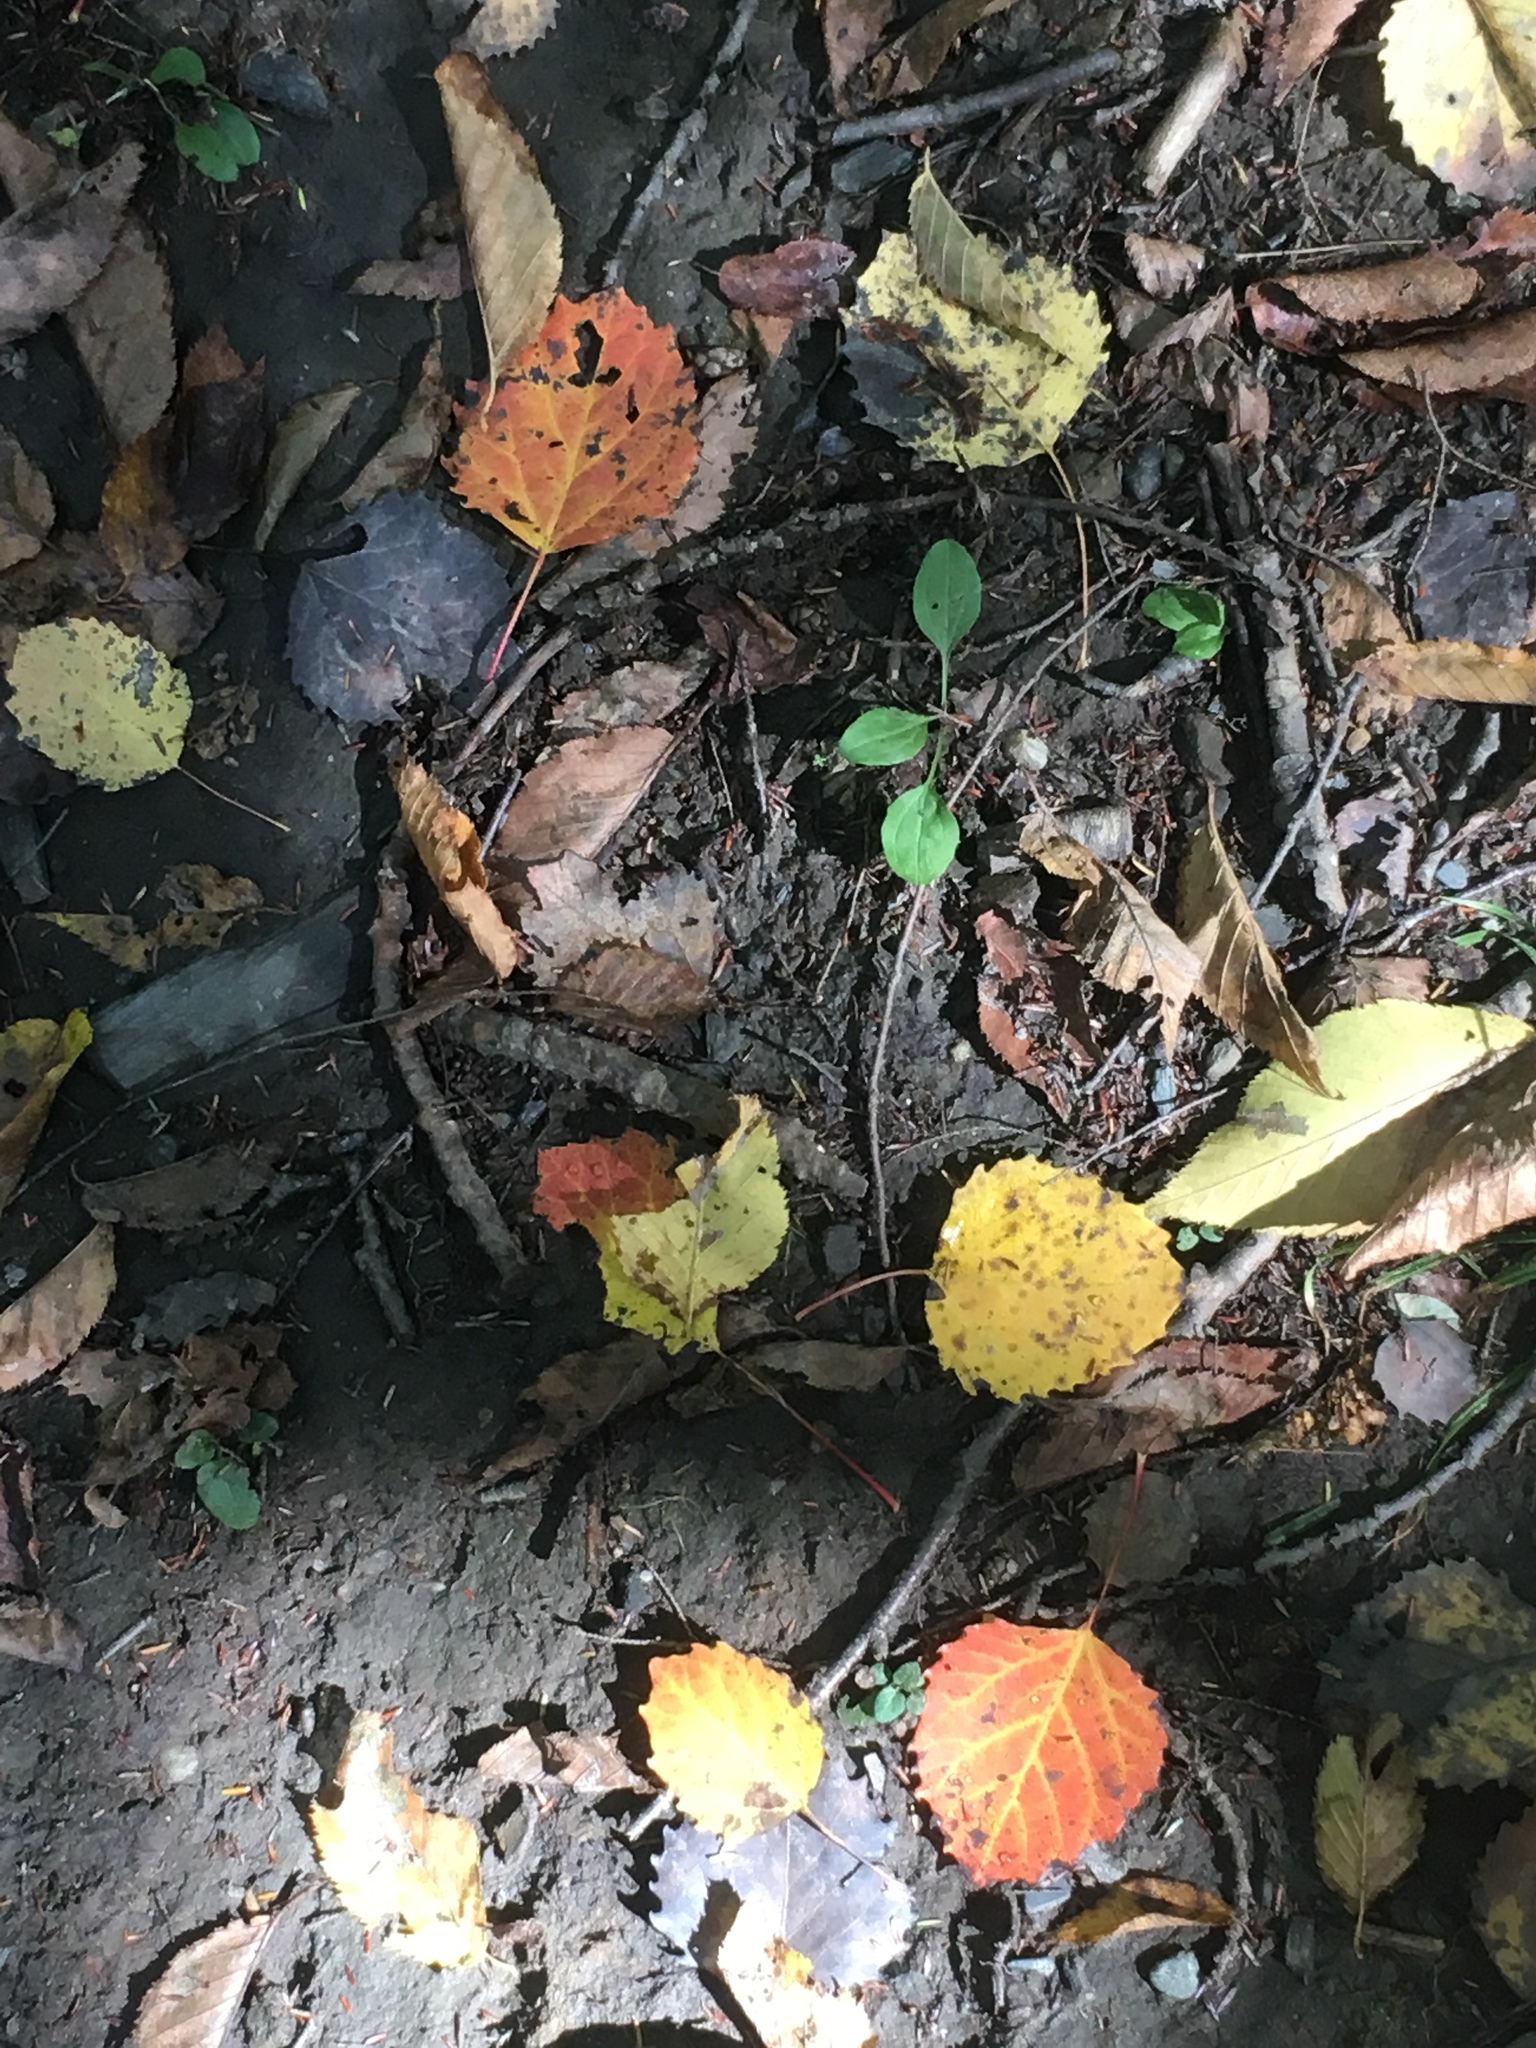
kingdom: Plantae
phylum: Tracheophyta
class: Magnoliopsida
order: Malpighiales
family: Salicaceae
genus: Populus
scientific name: Populus grandidentata
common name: Bigtooth aspen
